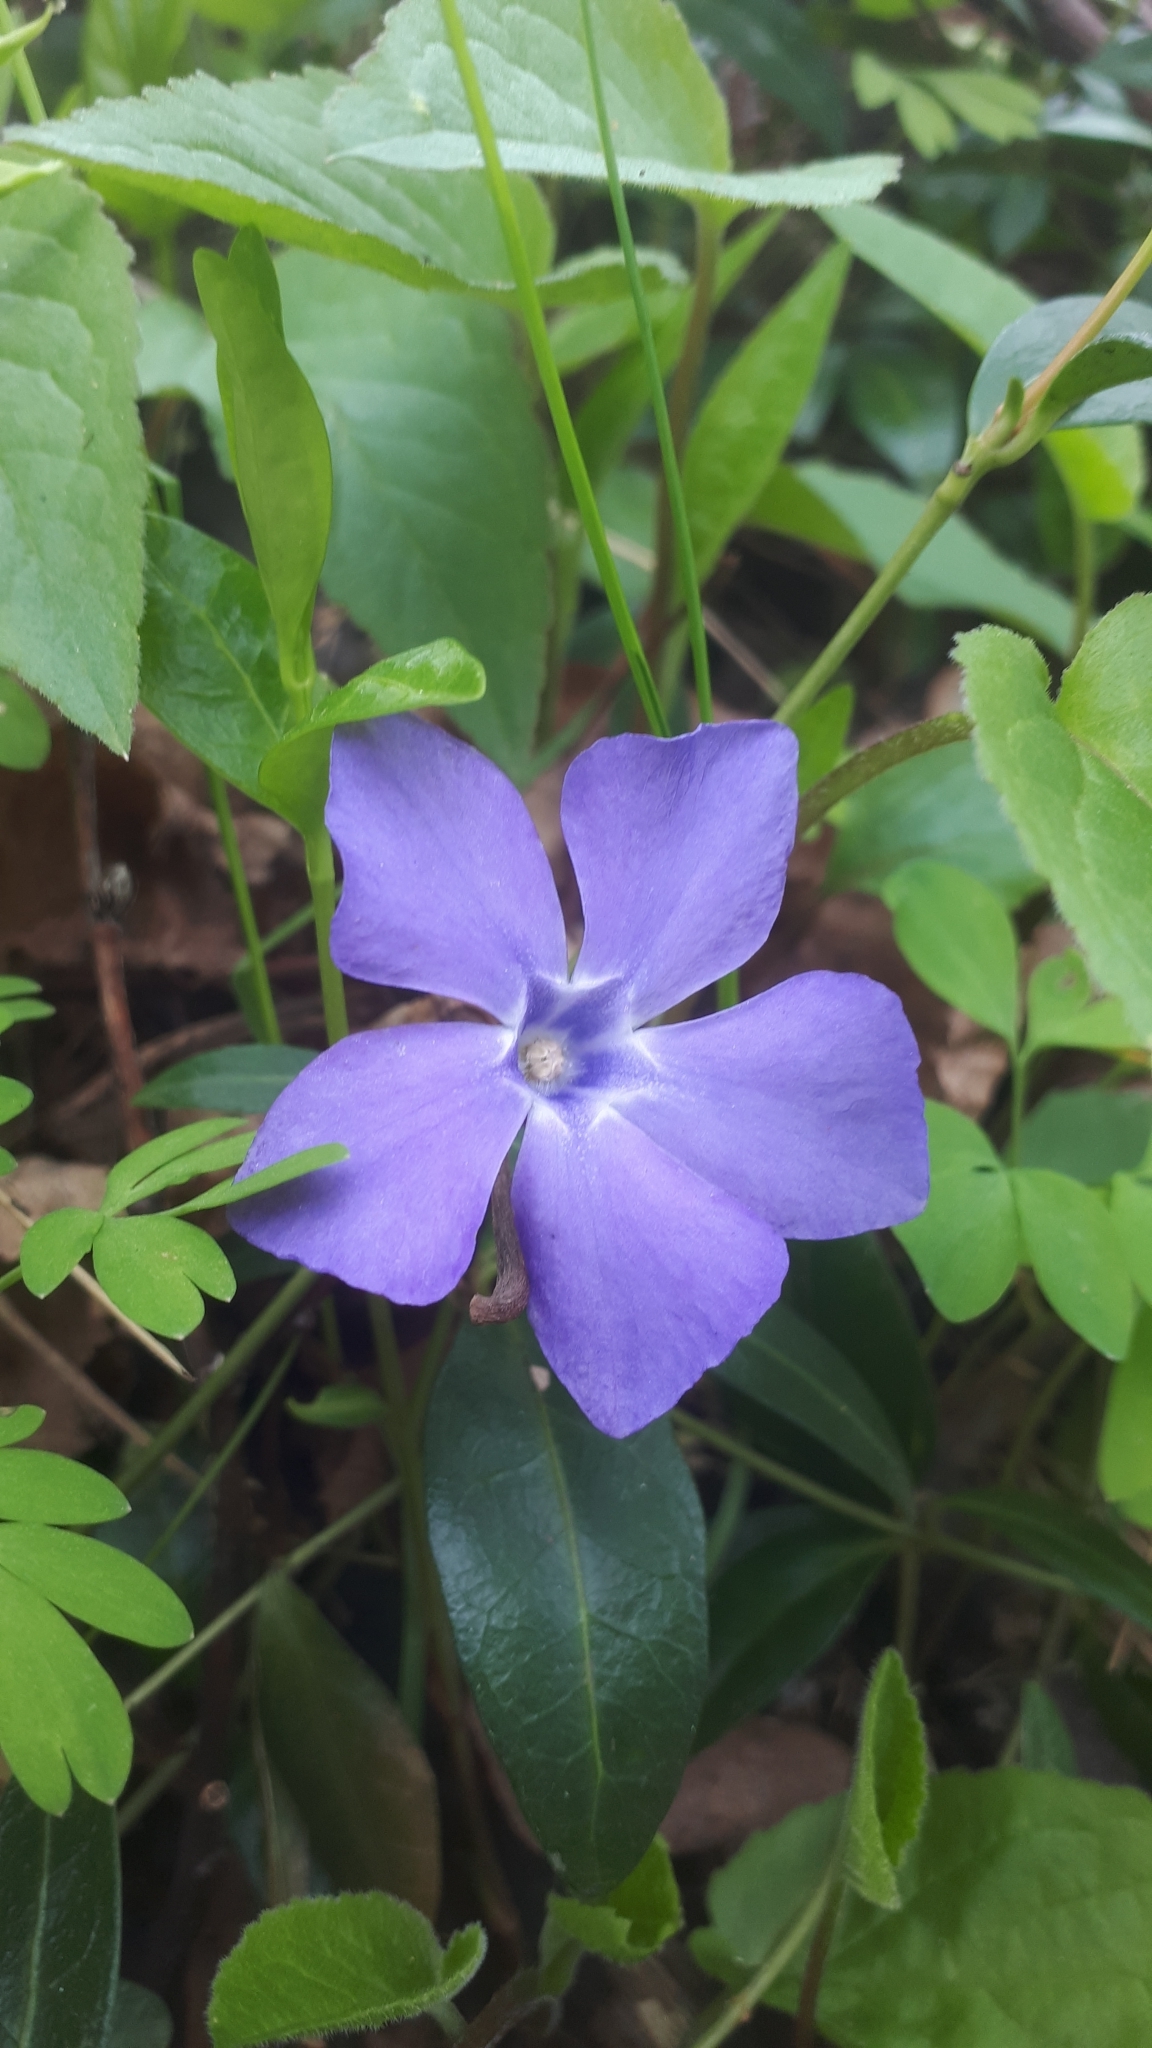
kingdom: Plantae
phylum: Tracheophyta
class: Magnoliopsida
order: Gentianales
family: Apocynaceae
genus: Vinca
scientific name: Vinca minor
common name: Lesser periwinkle
